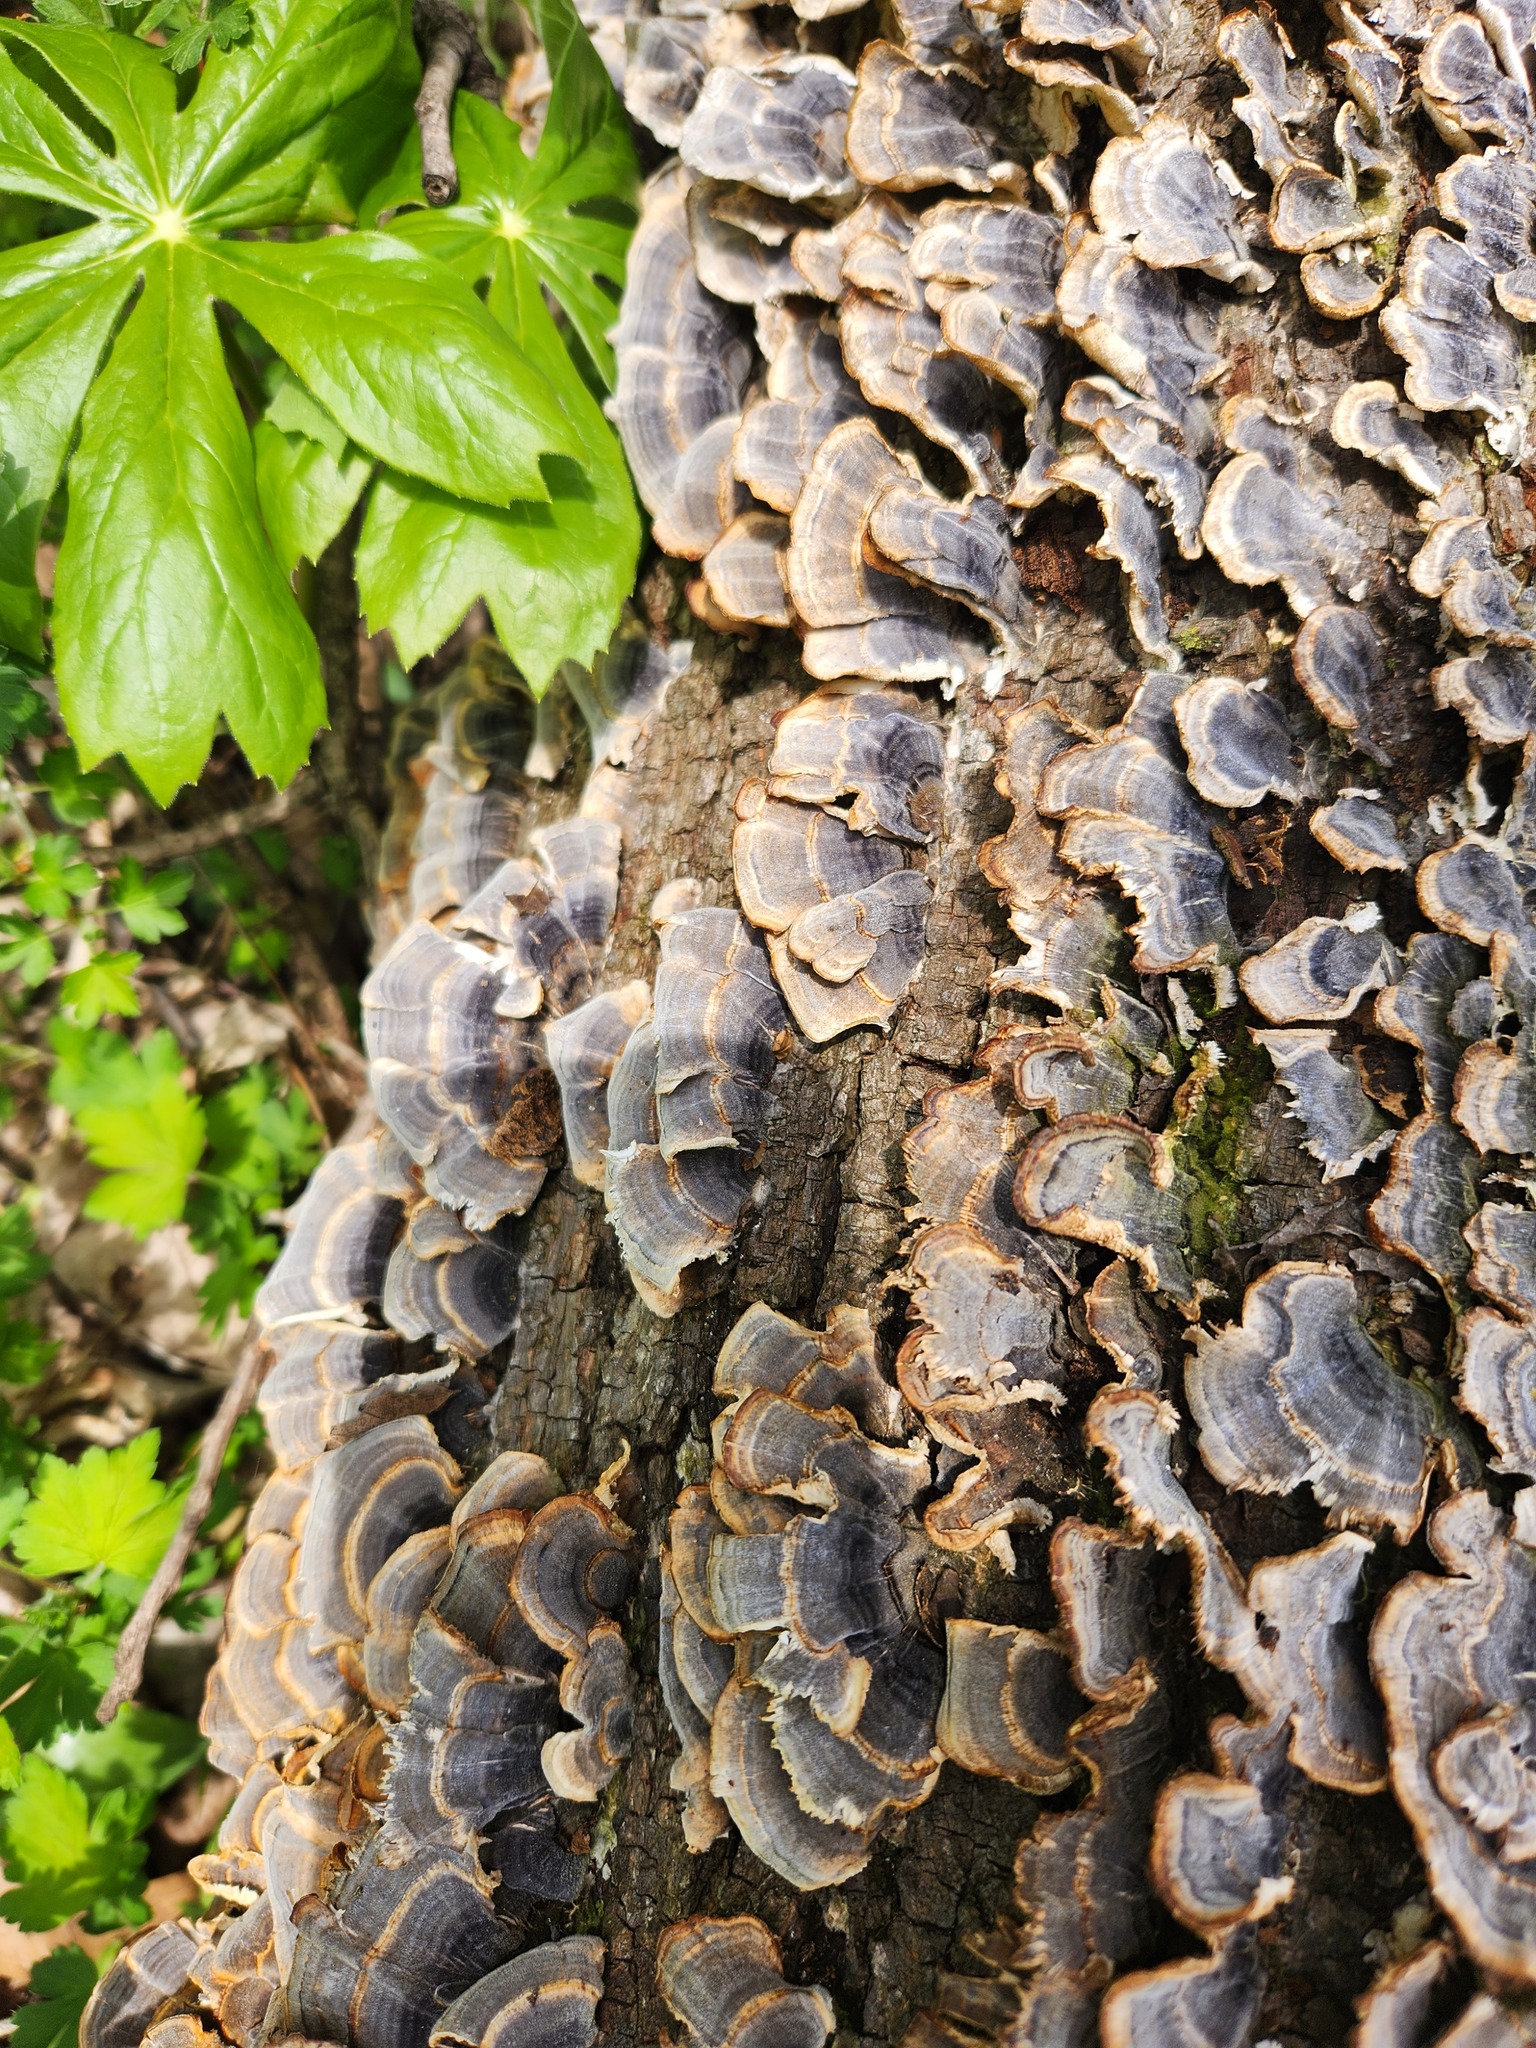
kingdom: Fungi
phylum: Basidiomycota
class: Agaricomycetes
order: Polyporales
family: Polyporaceae
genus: Trametes
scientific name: Trametes versicolor
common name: Turkeytail
